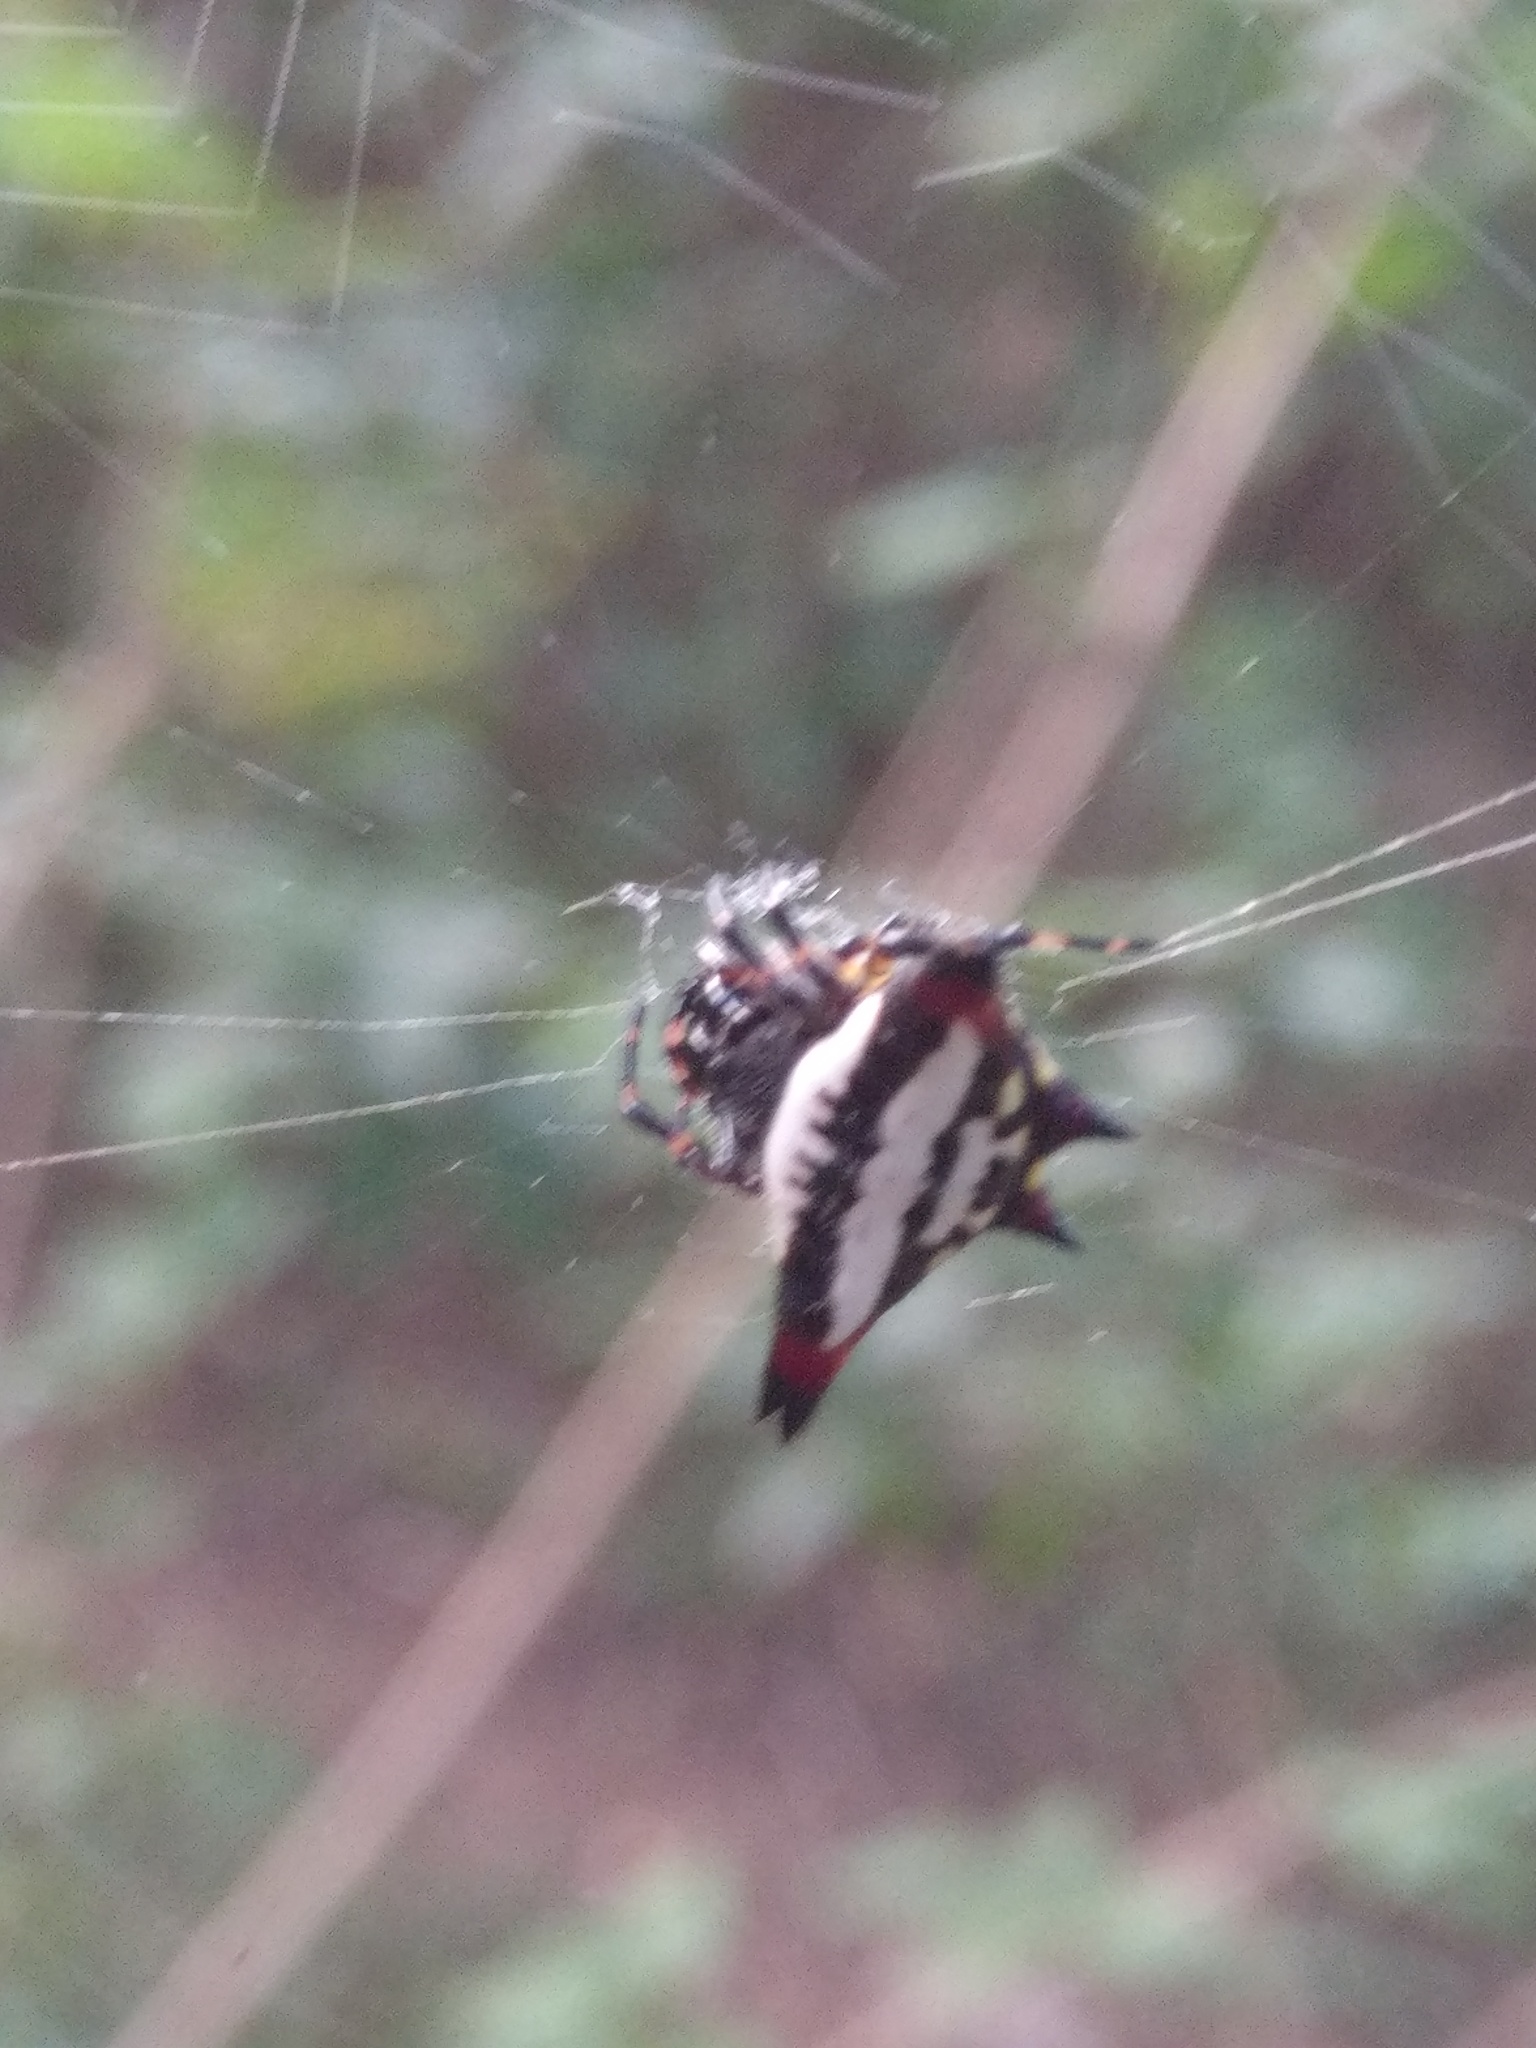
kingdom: Animalia
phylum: Arthropoda
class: Arachnida
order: Araneae
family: Araneidae
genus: Gasteracantha
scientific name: Gasteracantha geminata
